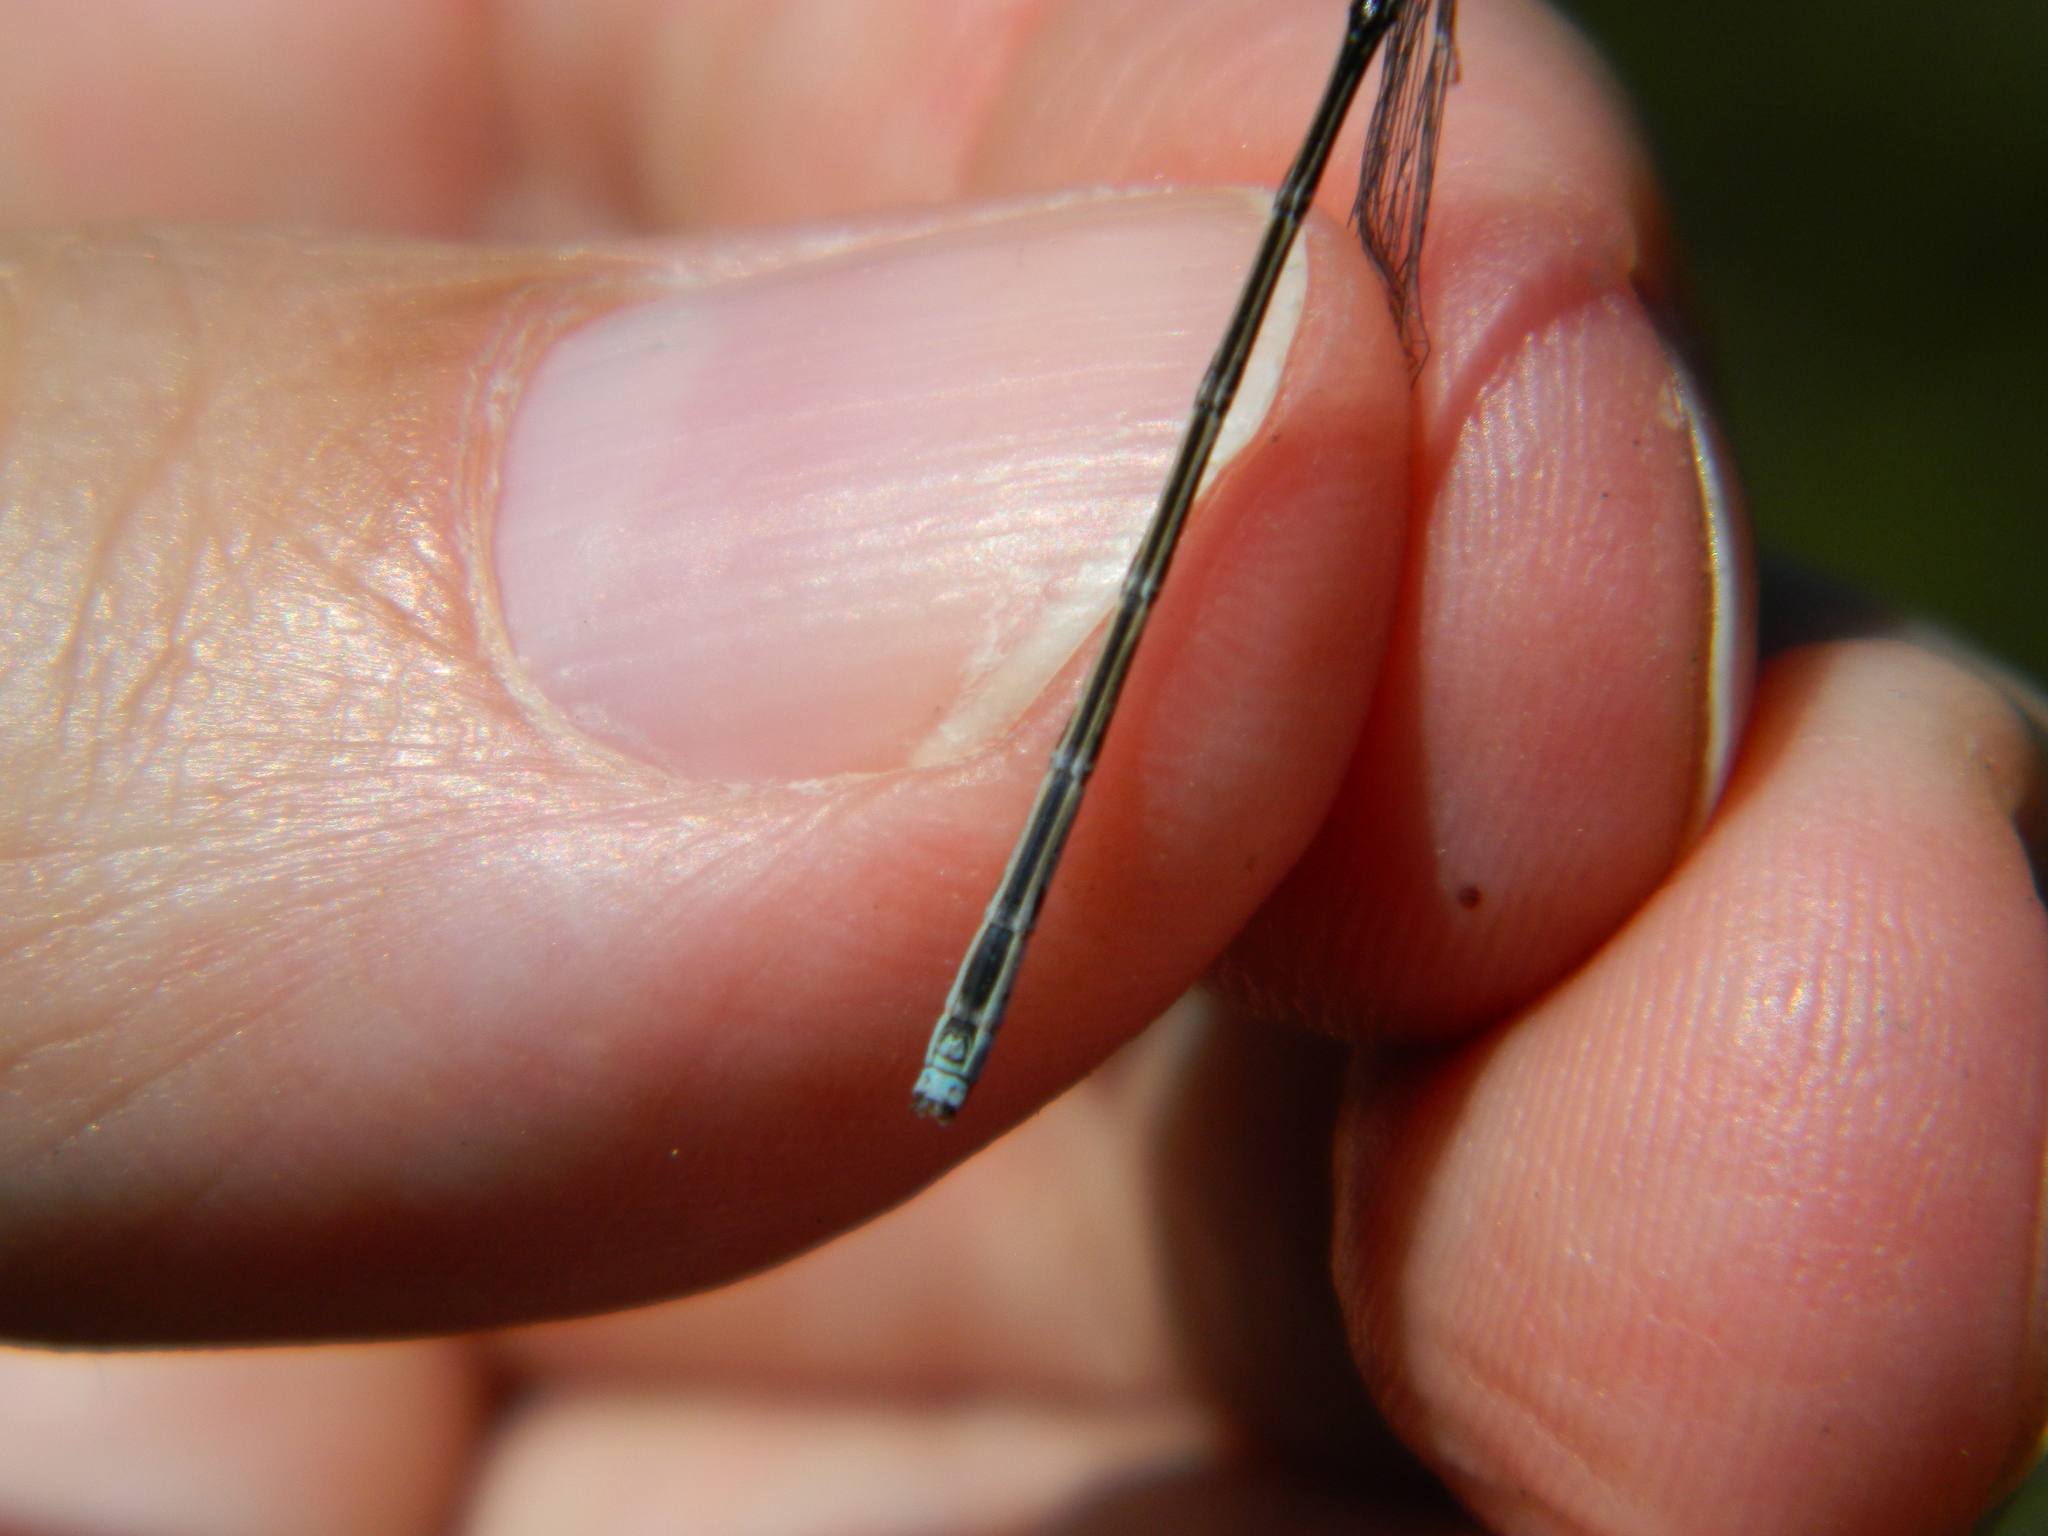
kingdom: Animalia
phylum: Arthropoda
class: Insecta
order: Odonata
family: Coenagrionidae
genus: Coenagrion
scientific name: Coenagrion interrogatum
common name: Subarctic bluet
